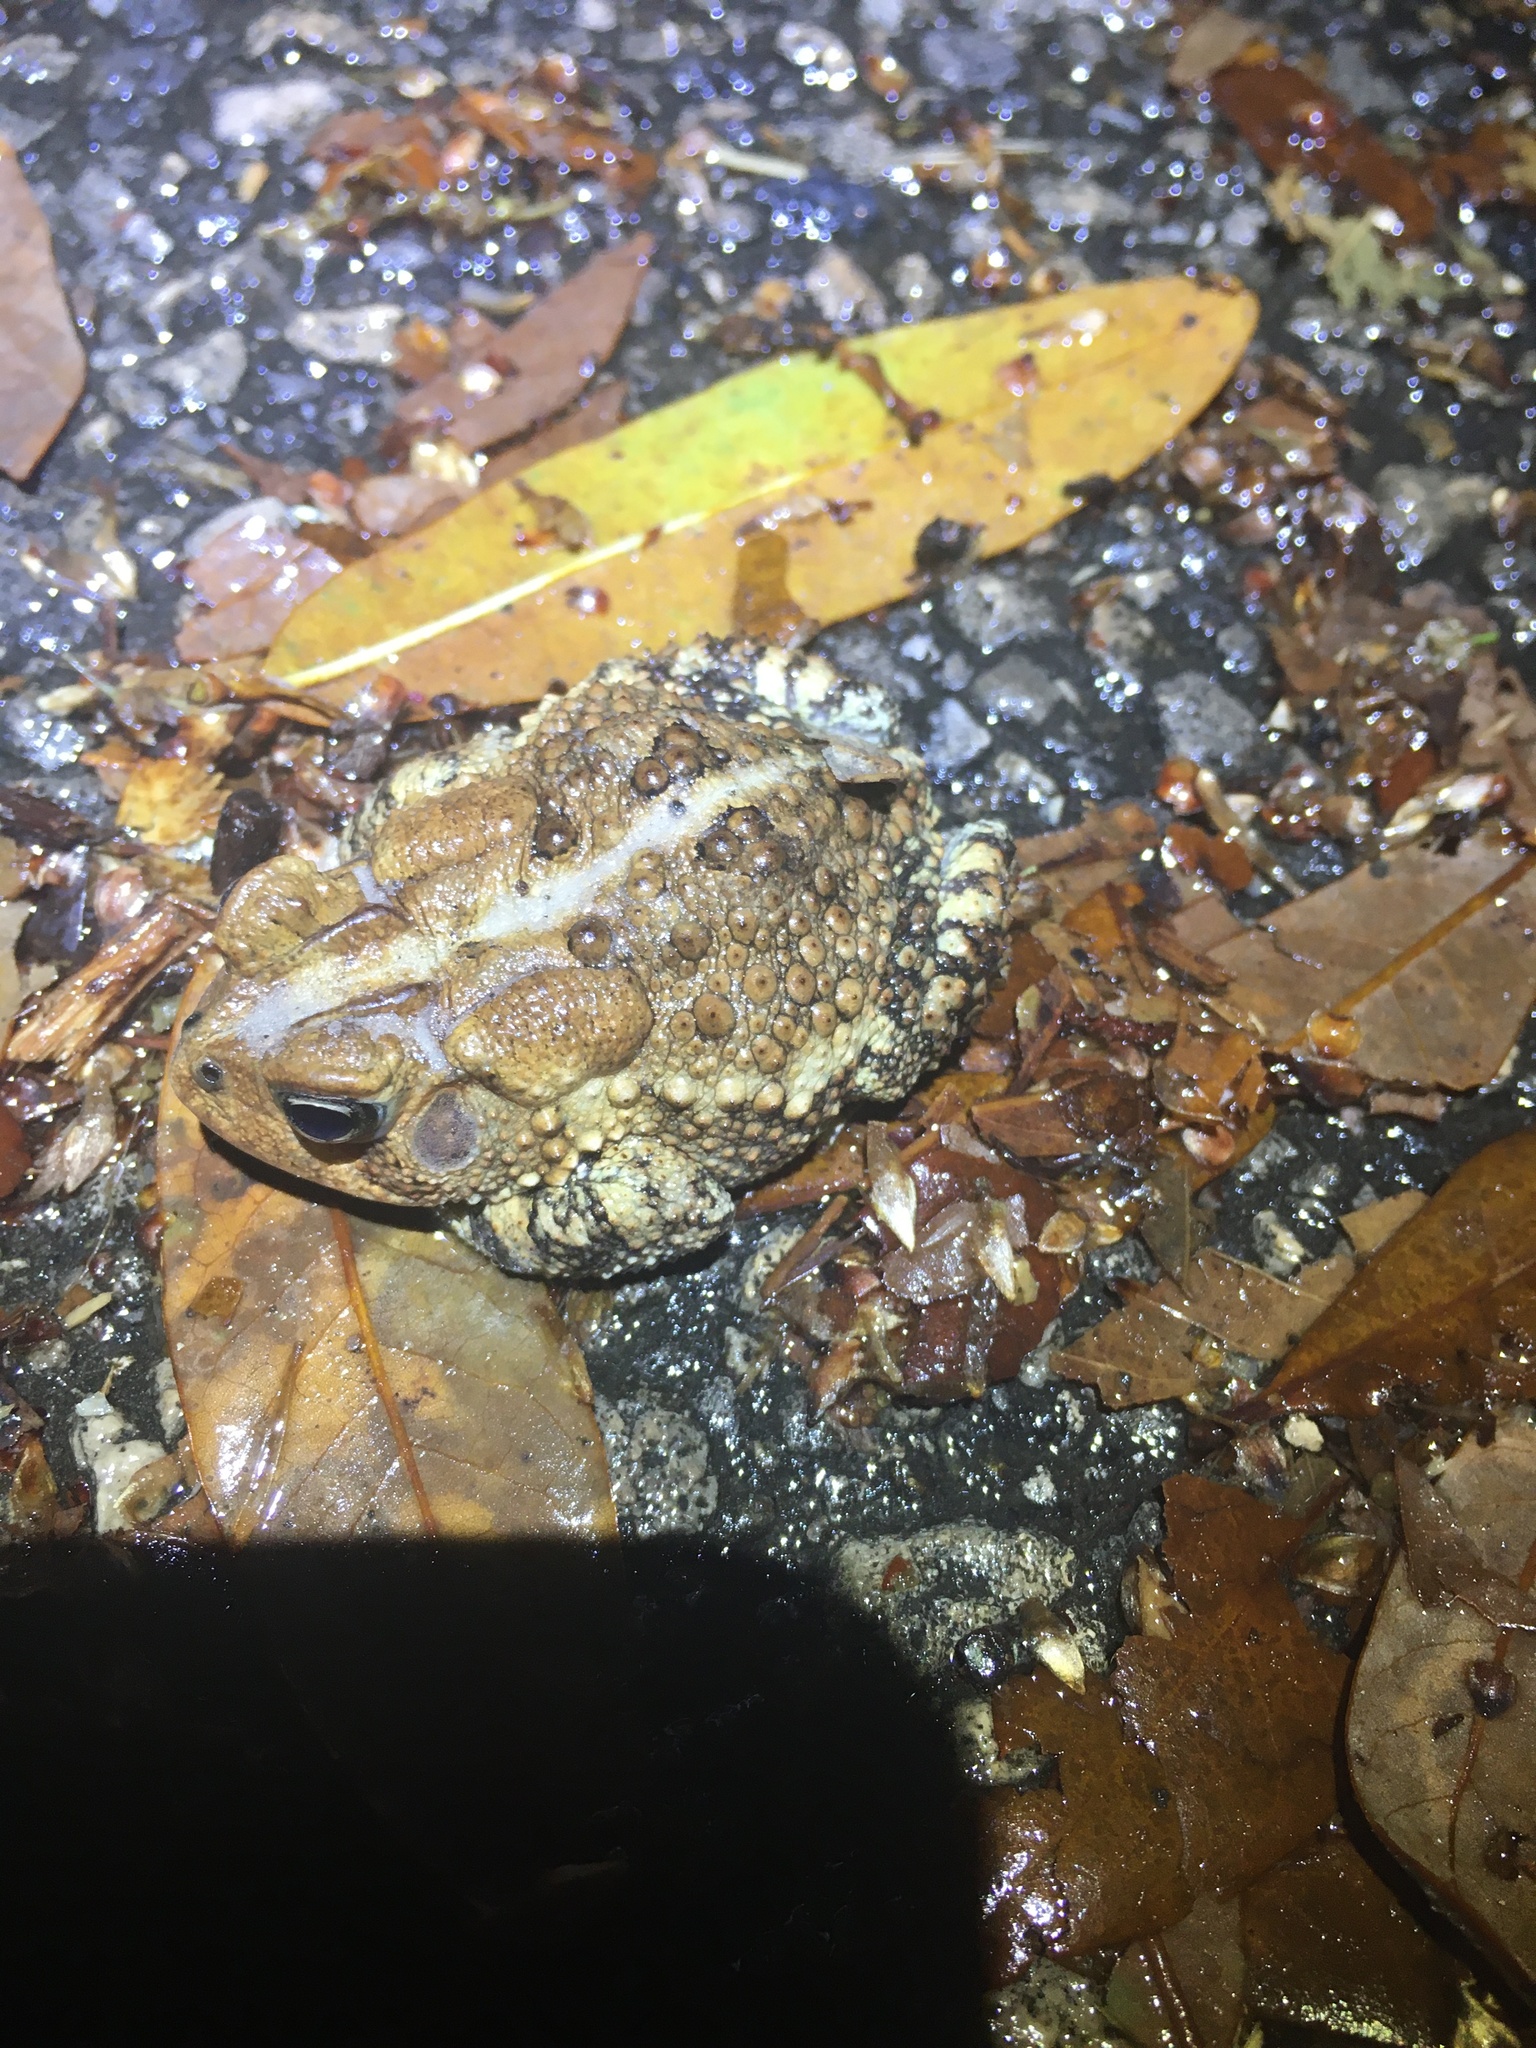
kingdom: Animalia
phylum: Chordata
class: Amphibia
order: Anura
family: Bufonidae
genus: Anaxyrus
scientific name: Anaxyrus terrestris
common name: Southern toad
